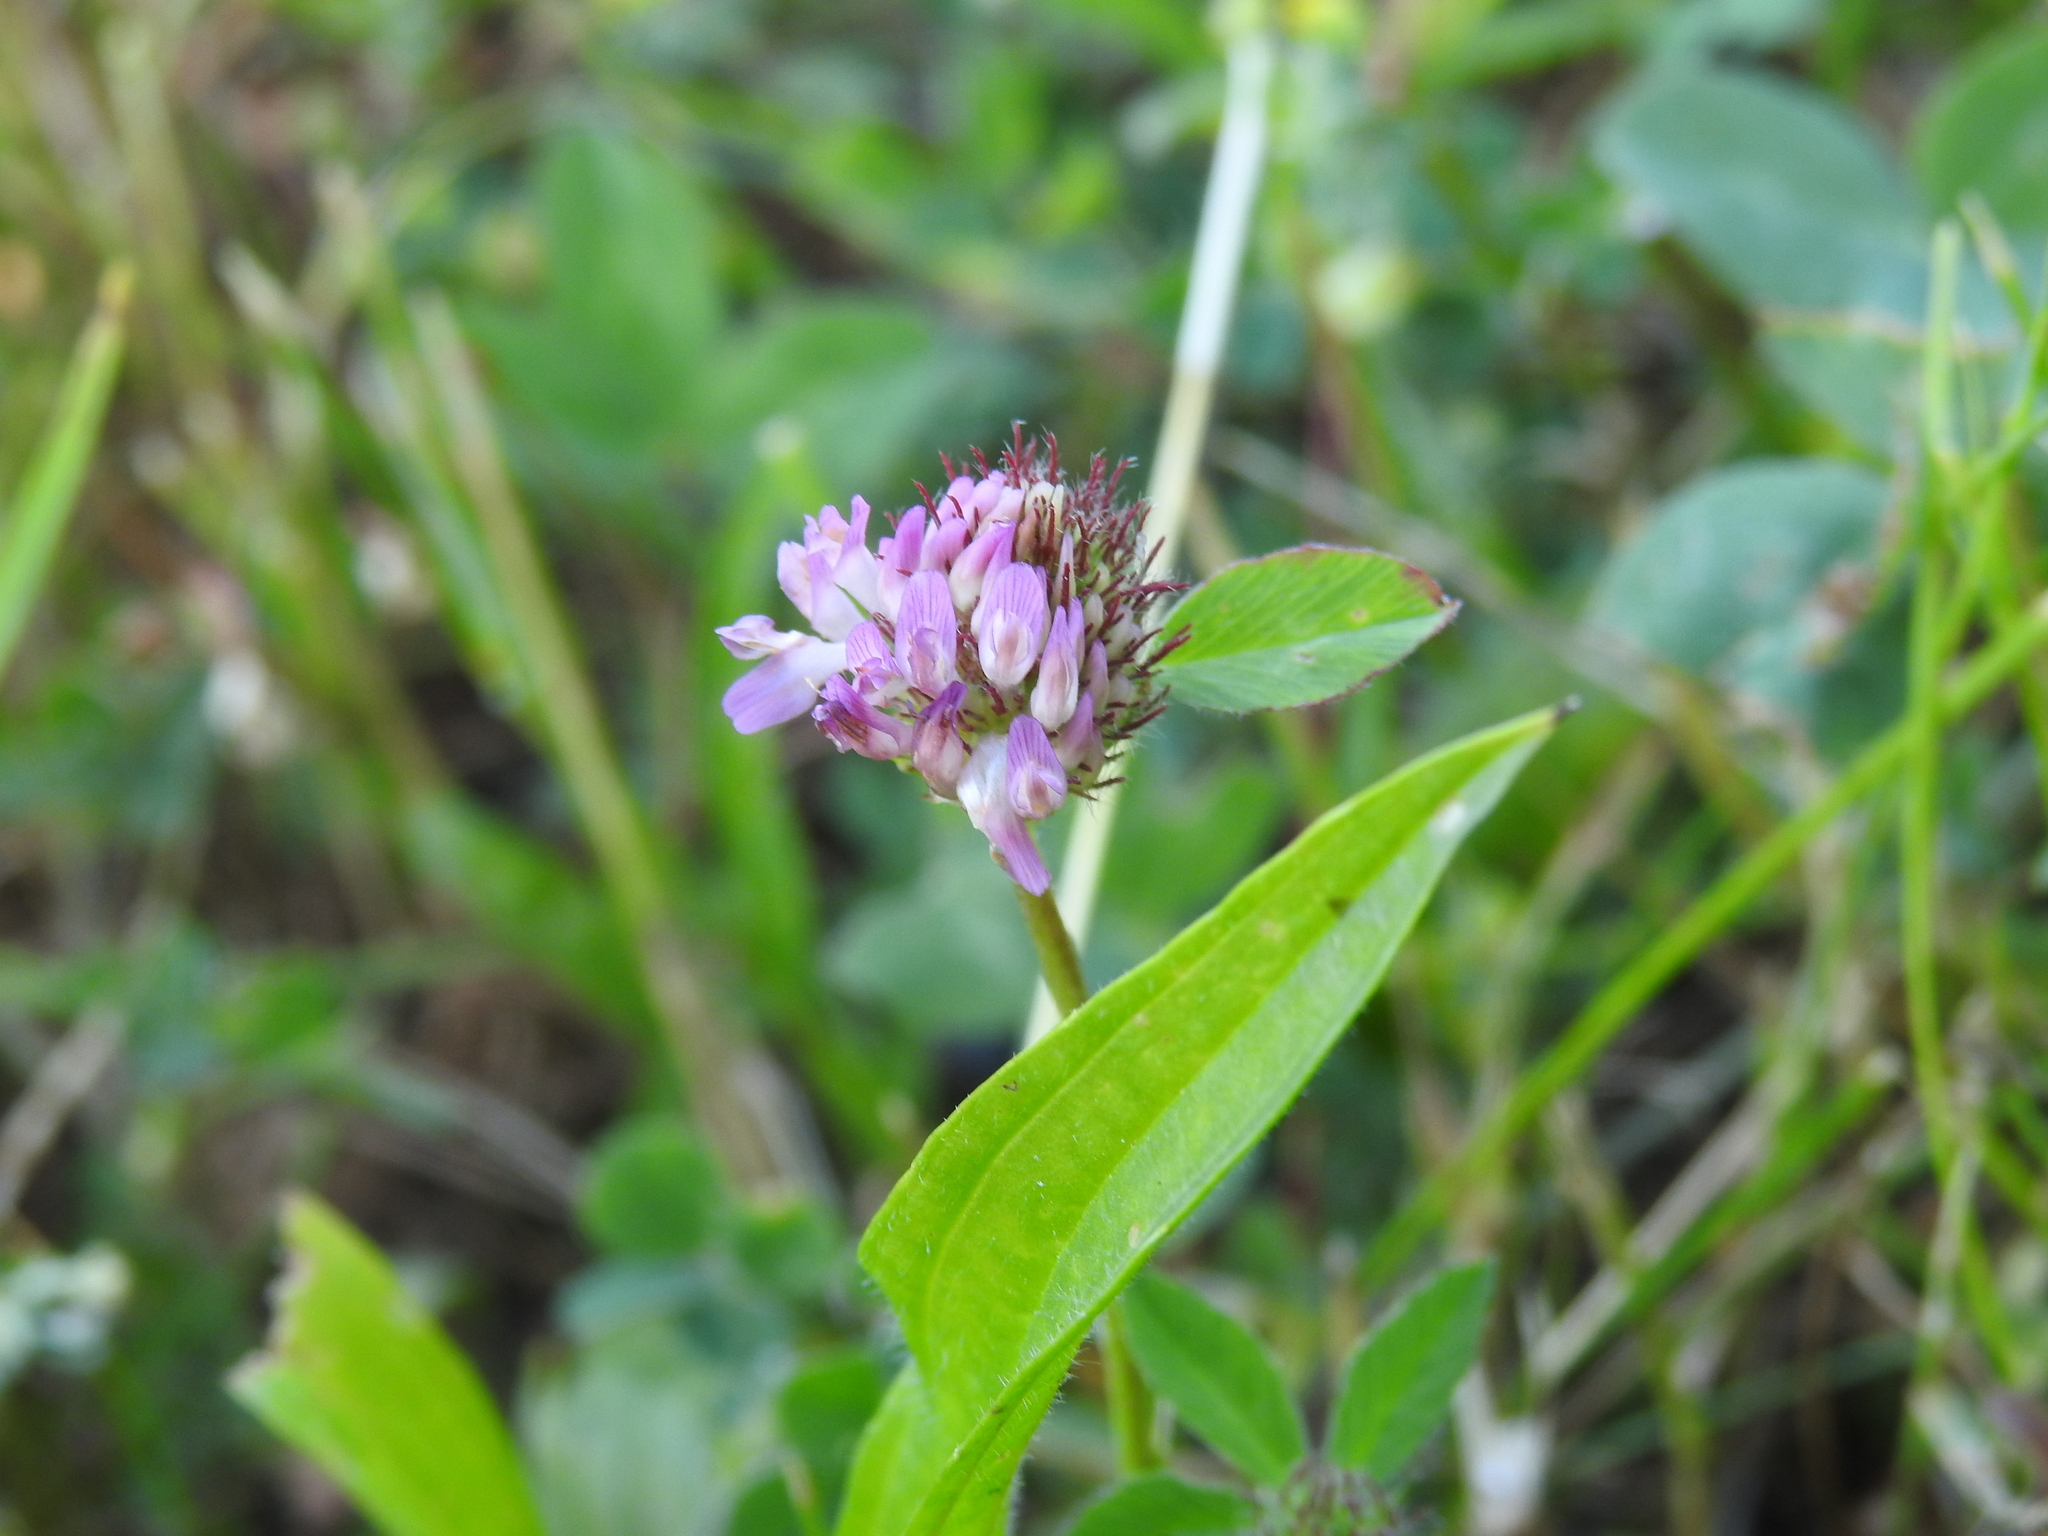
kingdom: Plantae
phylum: Tracheophyta
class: Magnoliopsida
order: Fabales
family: Fabaceae
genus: Trifolium
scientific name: Trifolium pratense
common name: Red clover
